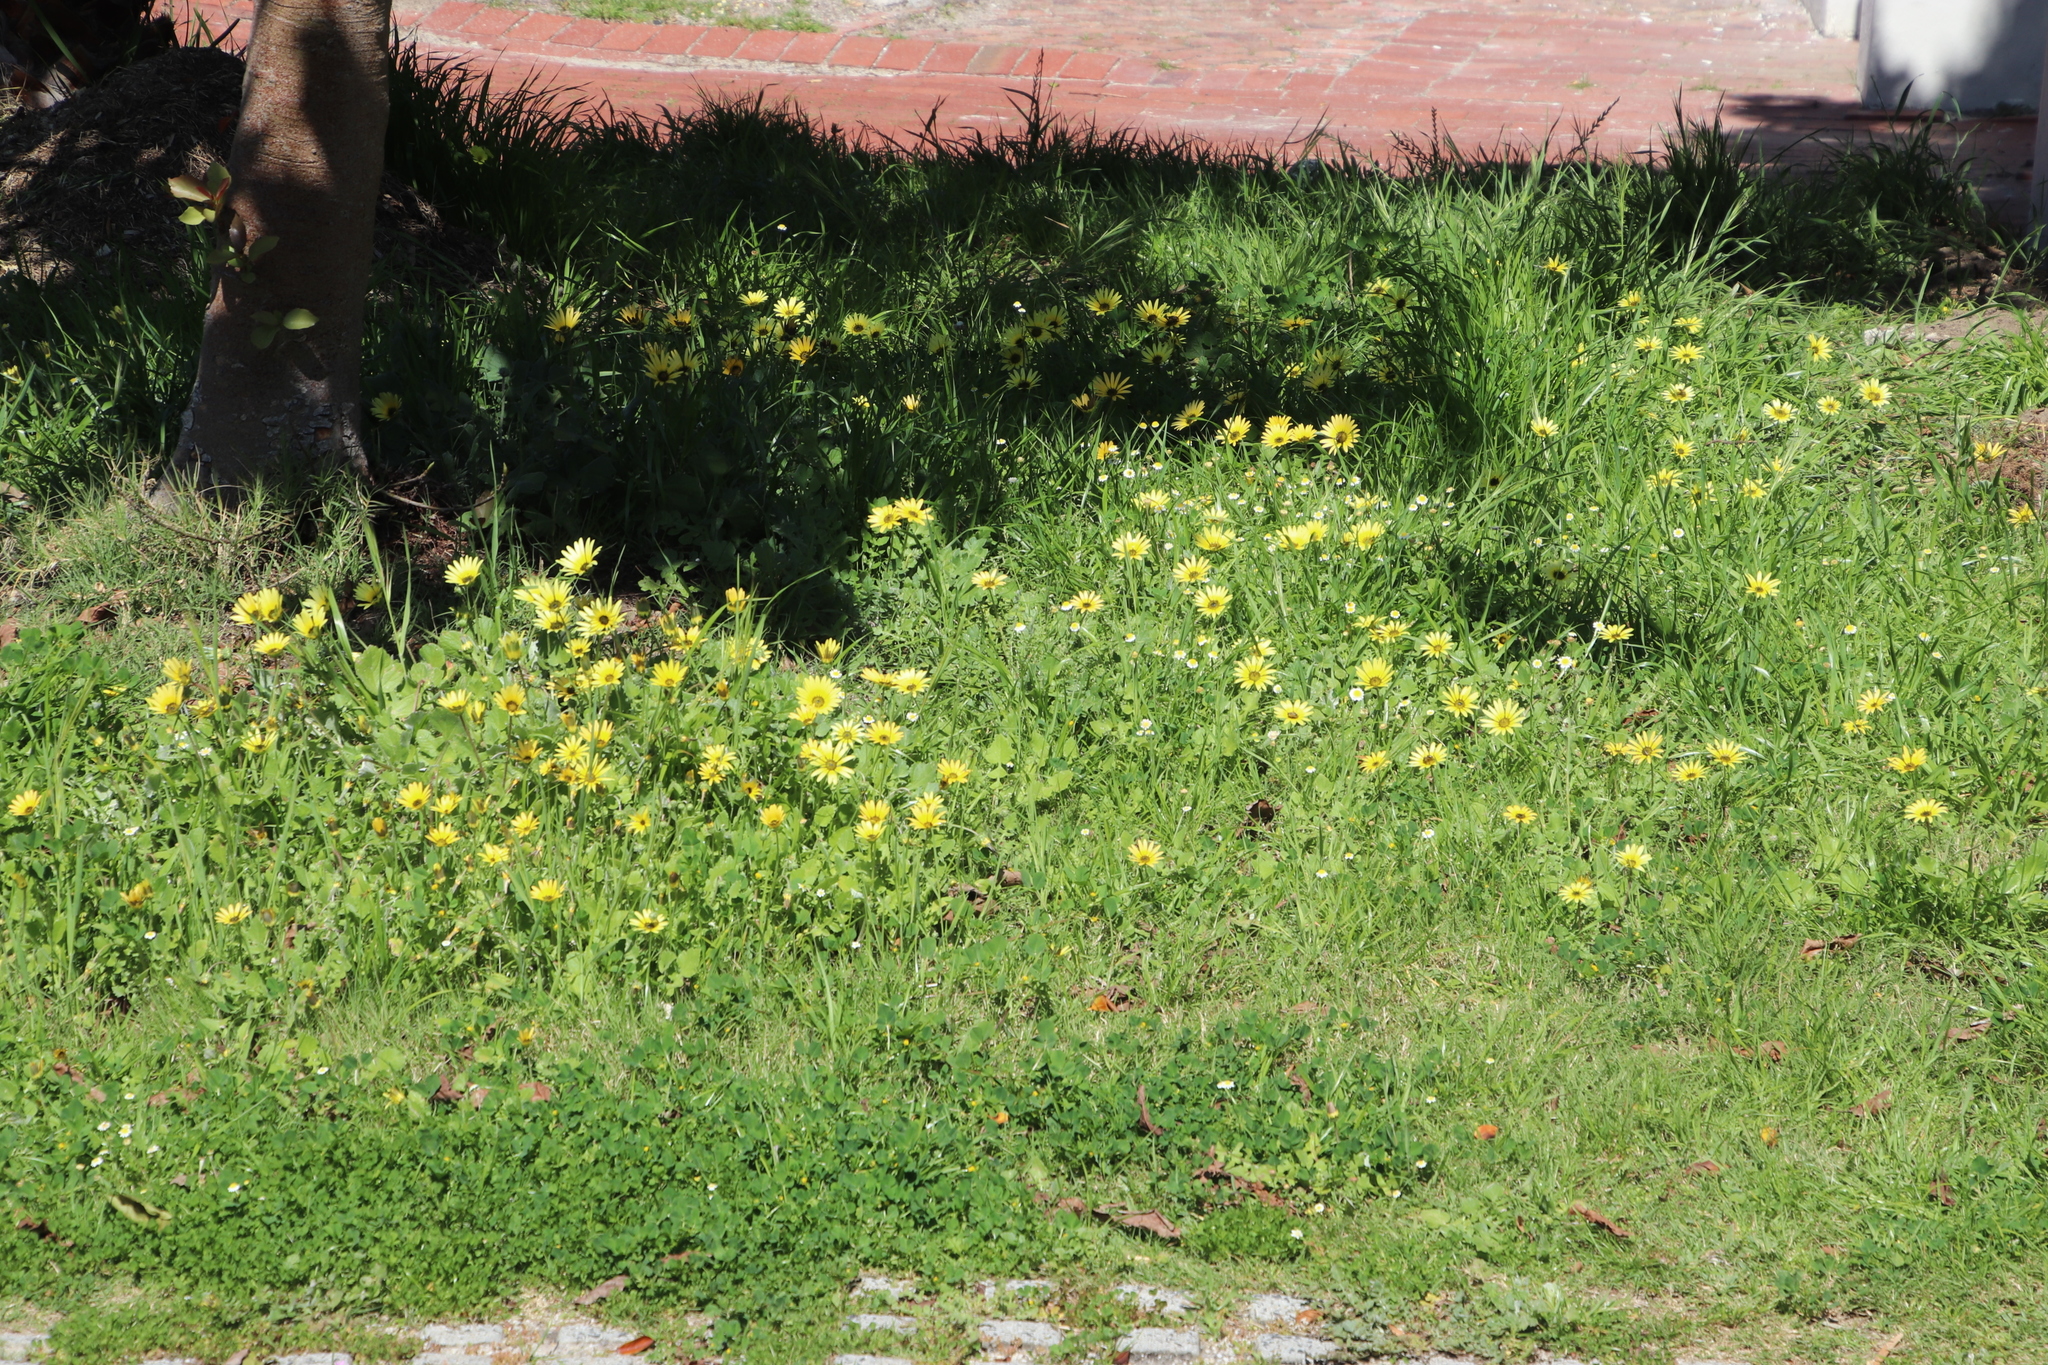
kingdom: Plantae
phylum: Tracheophyta
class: Magnoliopsida
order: Asterales
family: Asteraceae
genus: Arctotheca
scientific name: Arctotheca calendula
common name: Capeweed
